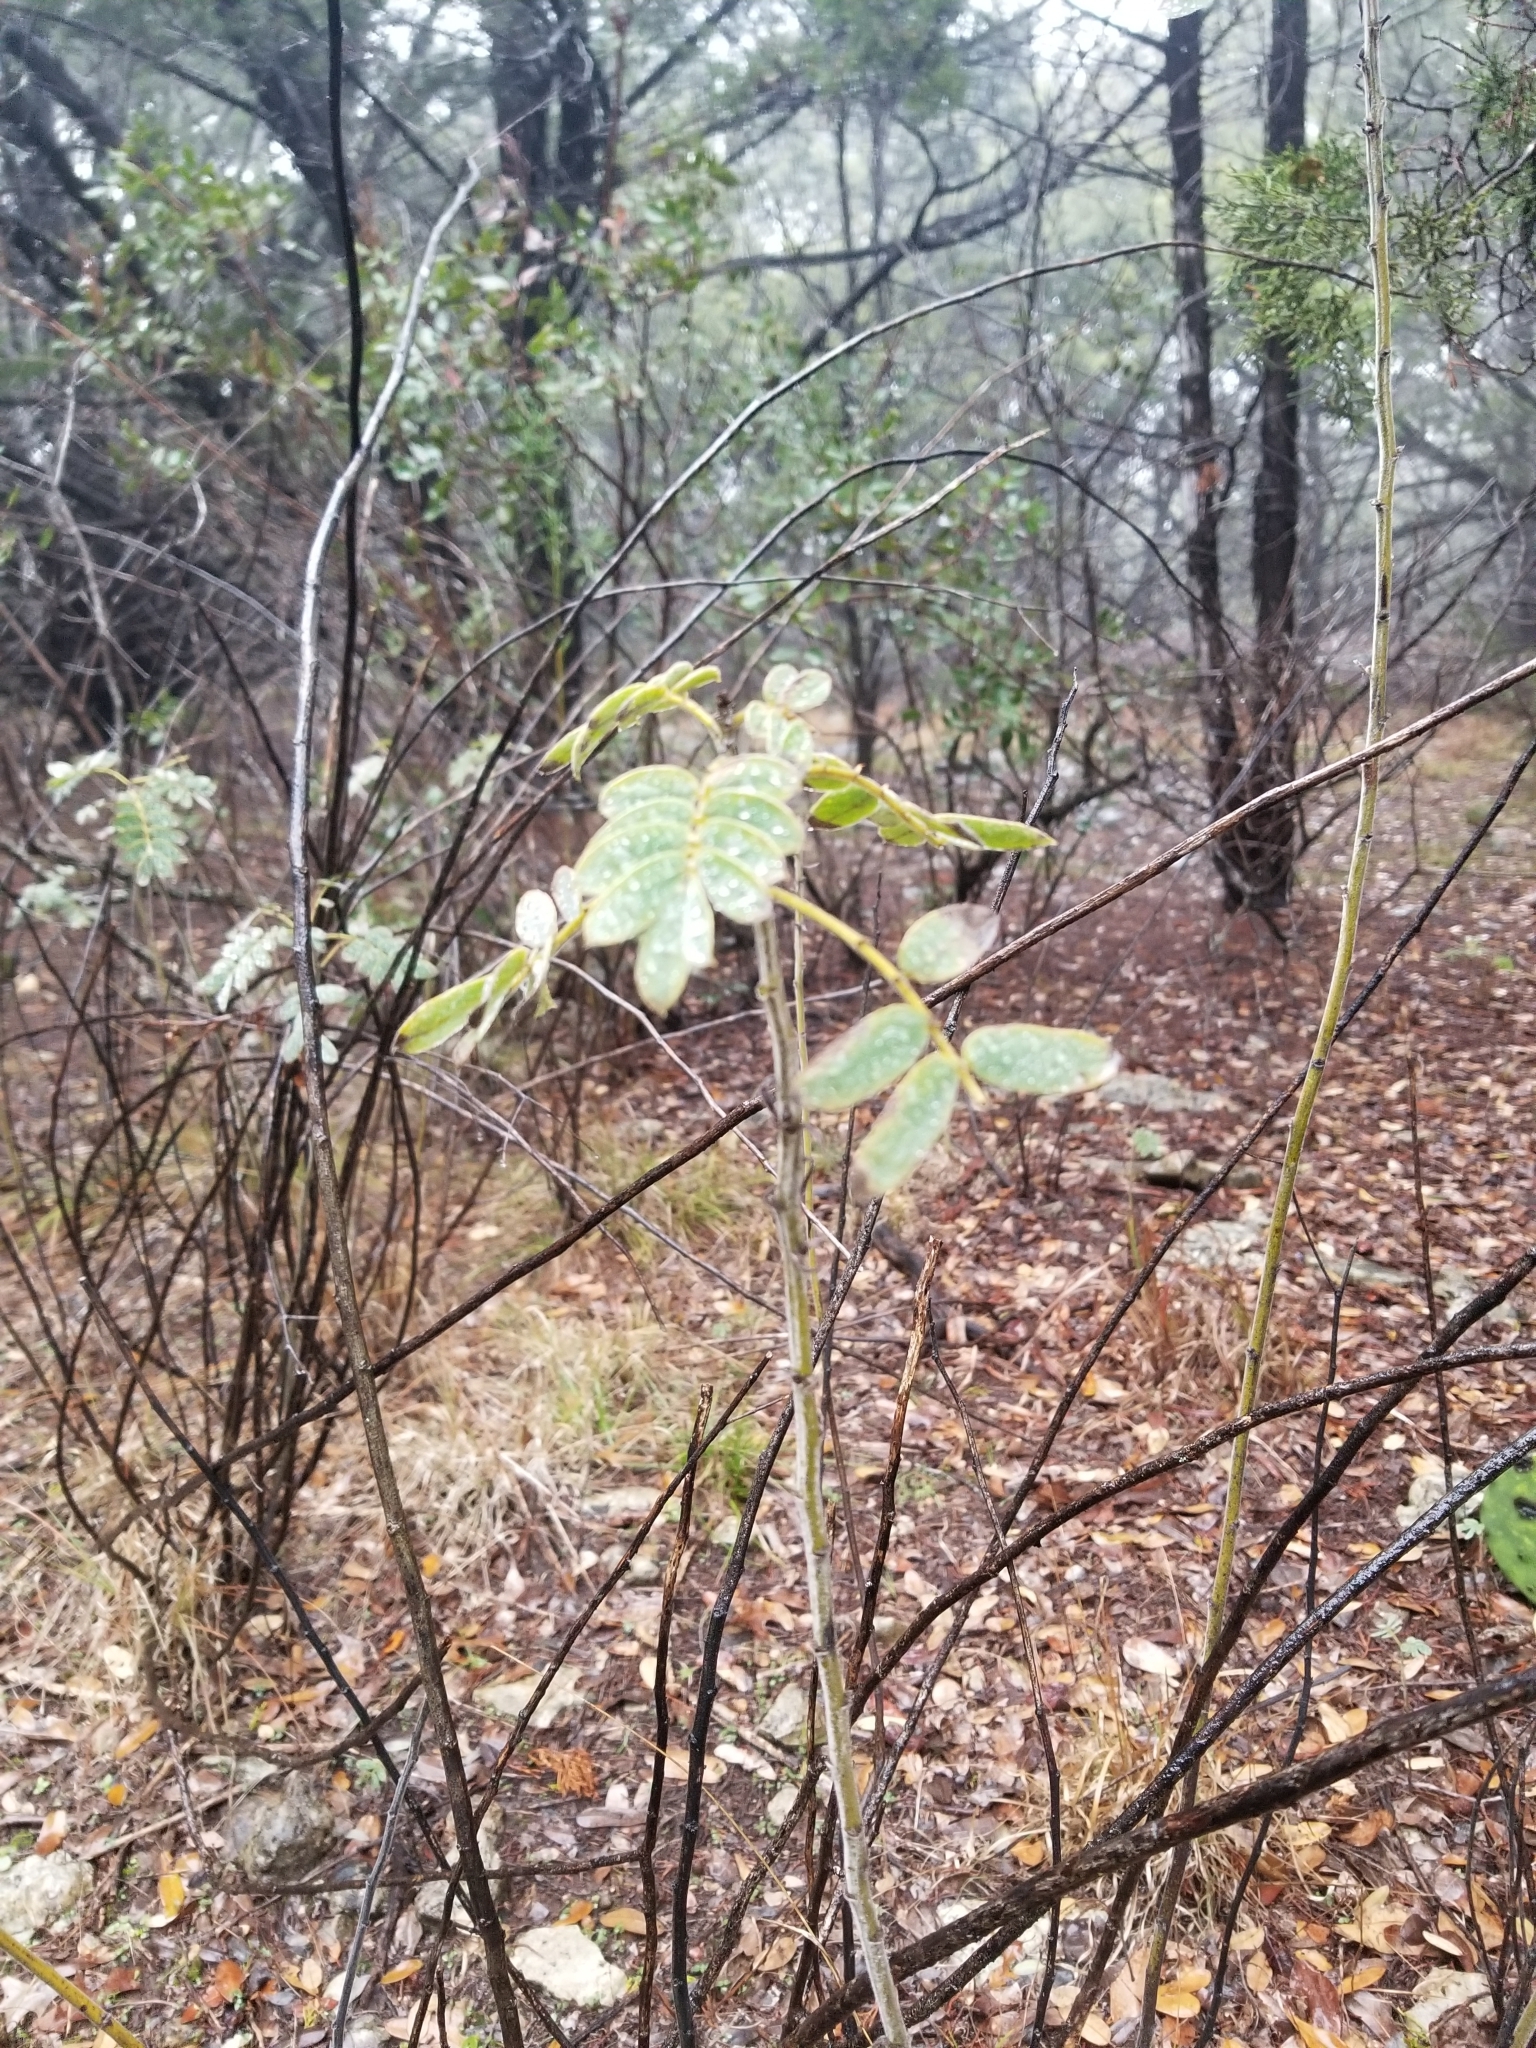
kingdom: Plantae
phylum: Tracheophyta
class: Magnoliopsida
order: Fabales
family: Fabaceae
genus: Senna
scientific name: Senna lindheimeriana
